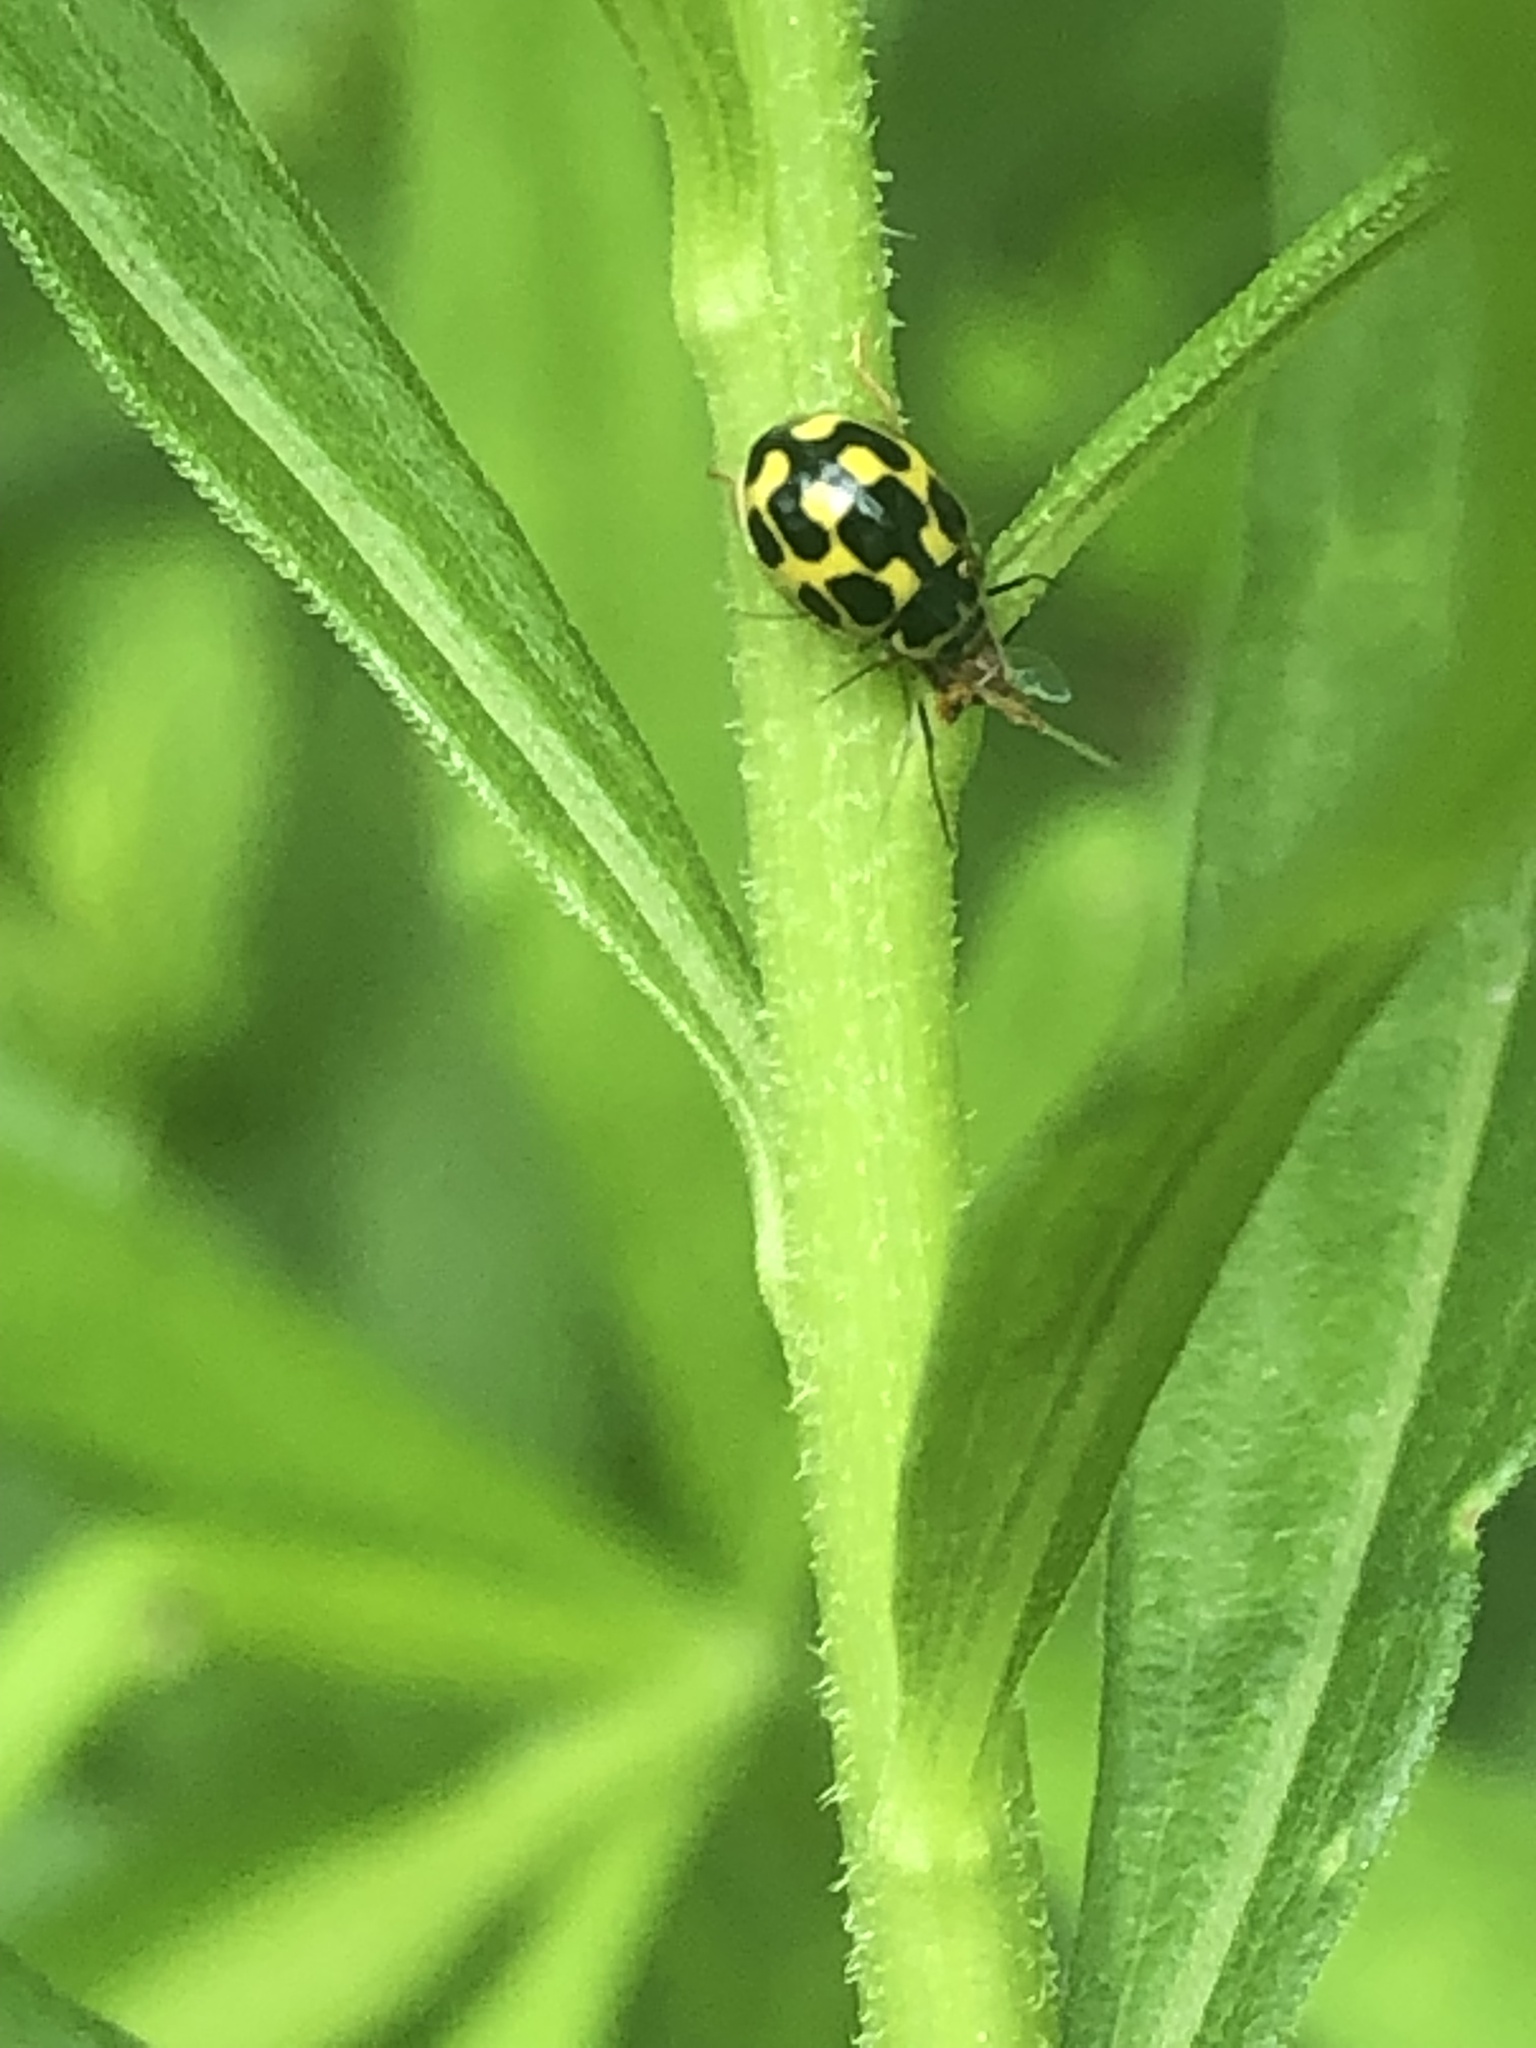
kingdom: Animalia
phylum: Arthropoda
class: Insecta
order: Coleoptera
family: Coccinellidae
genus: Propylaea
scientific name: Propylaea quatuordecimpunctata
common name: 14-spotted ladybird beetle
